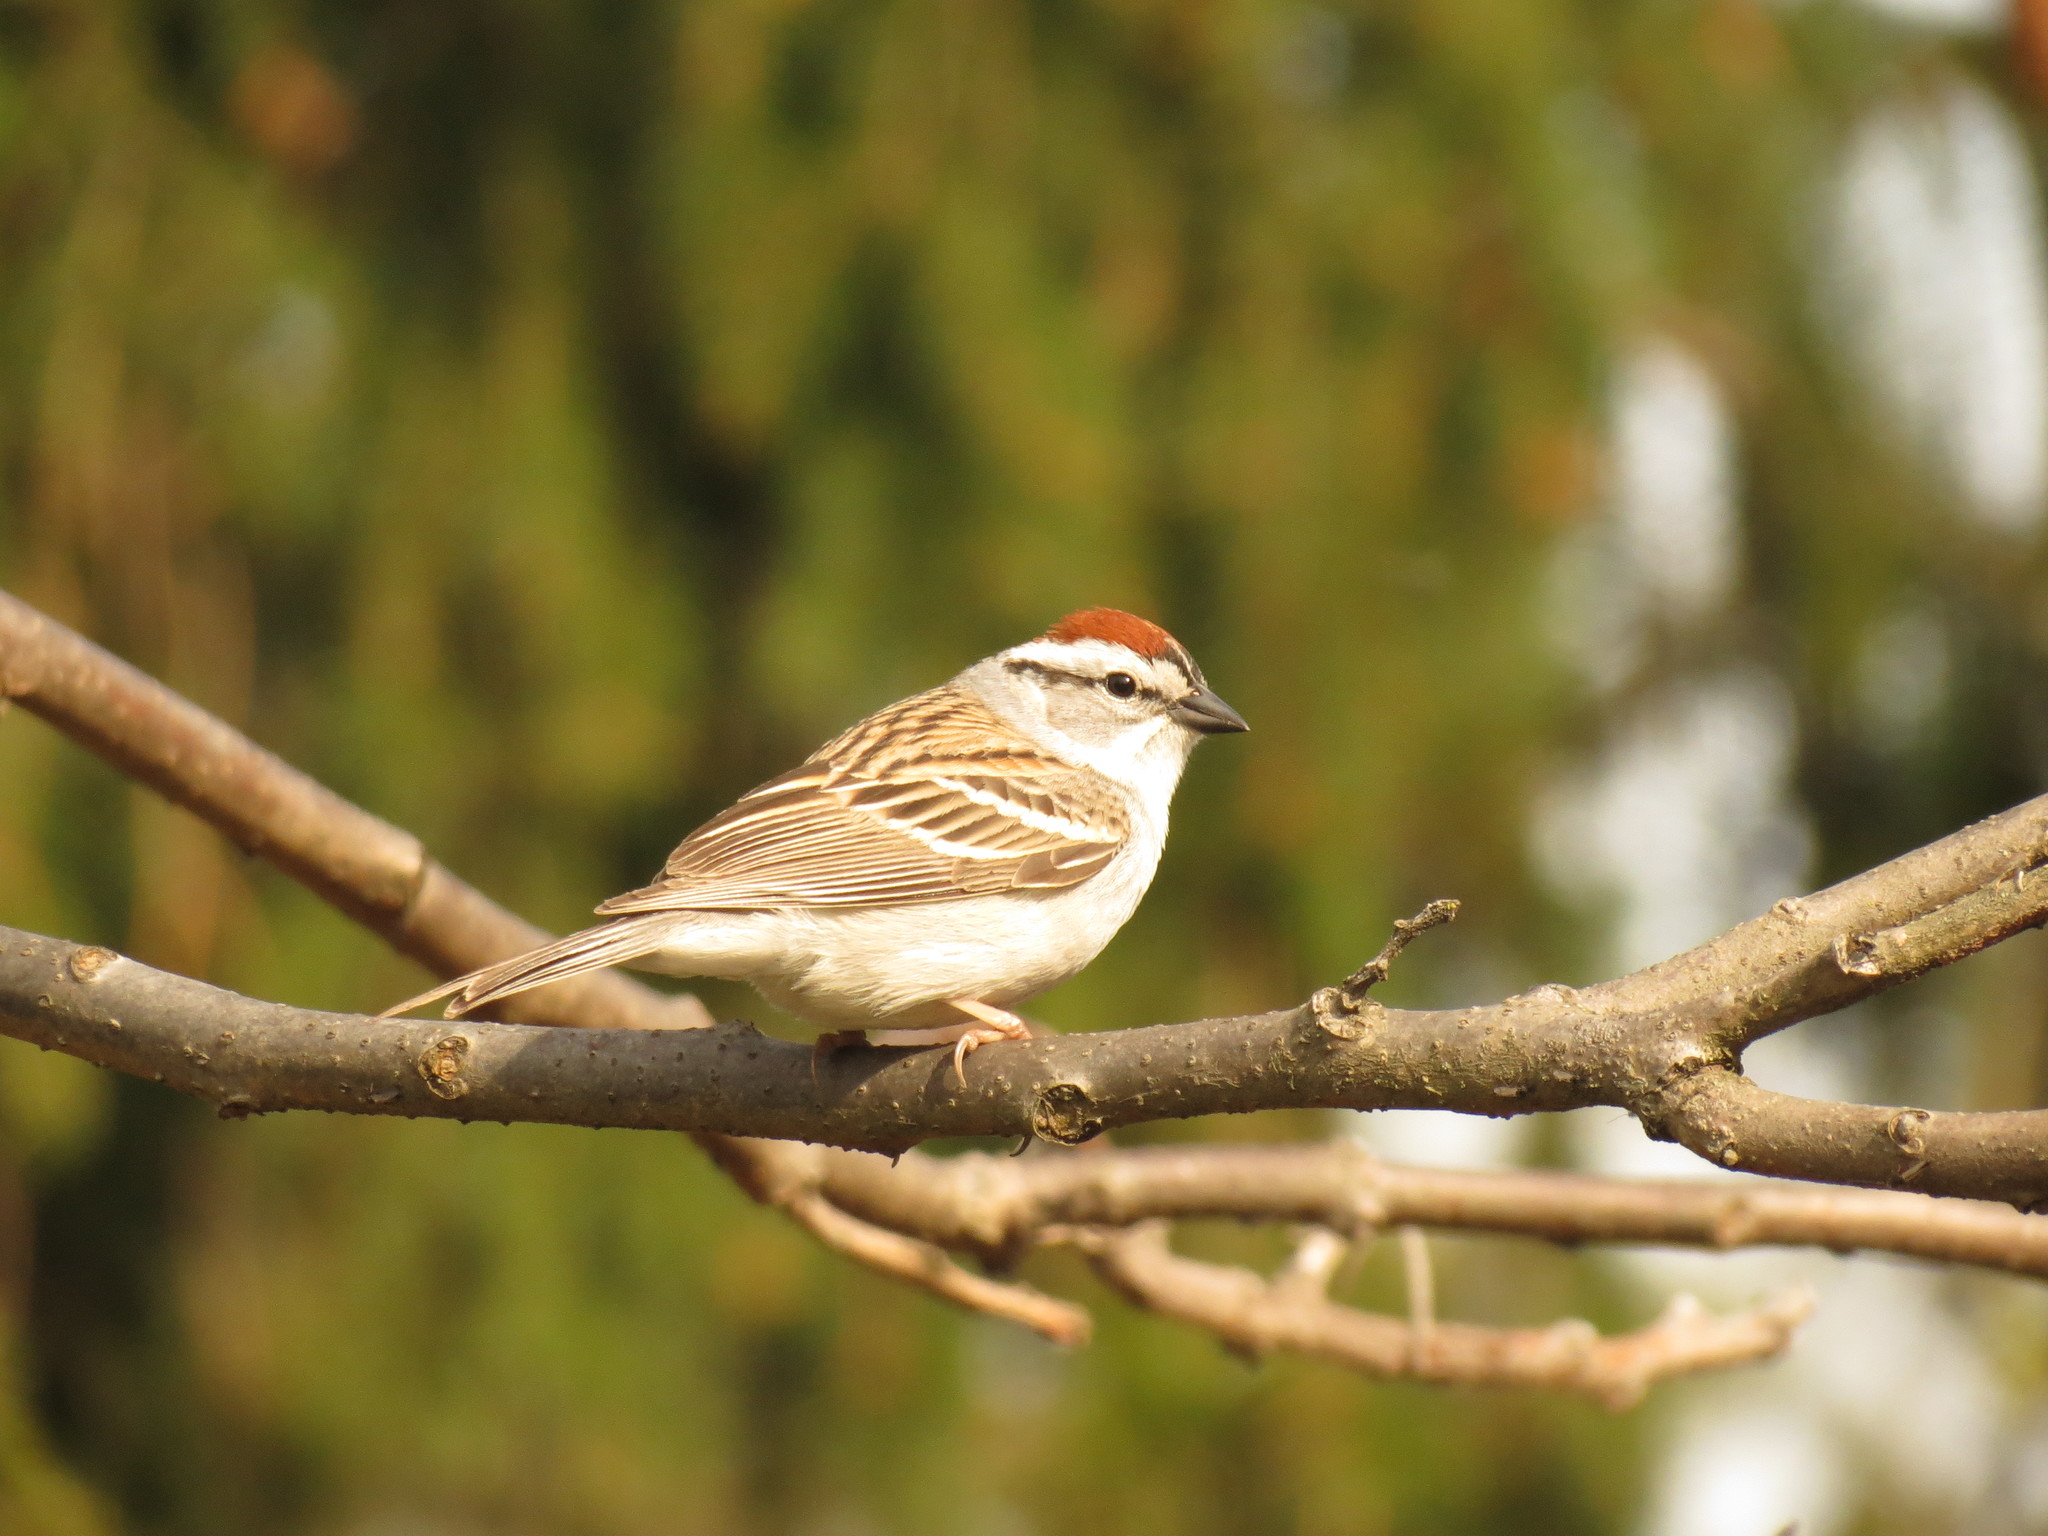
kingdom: Animalia
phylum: Chordata
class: Aves
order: Passeriformes
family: Passerellidae
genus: Spizella
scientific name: Spizella passerina
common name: Chipping sparrow
